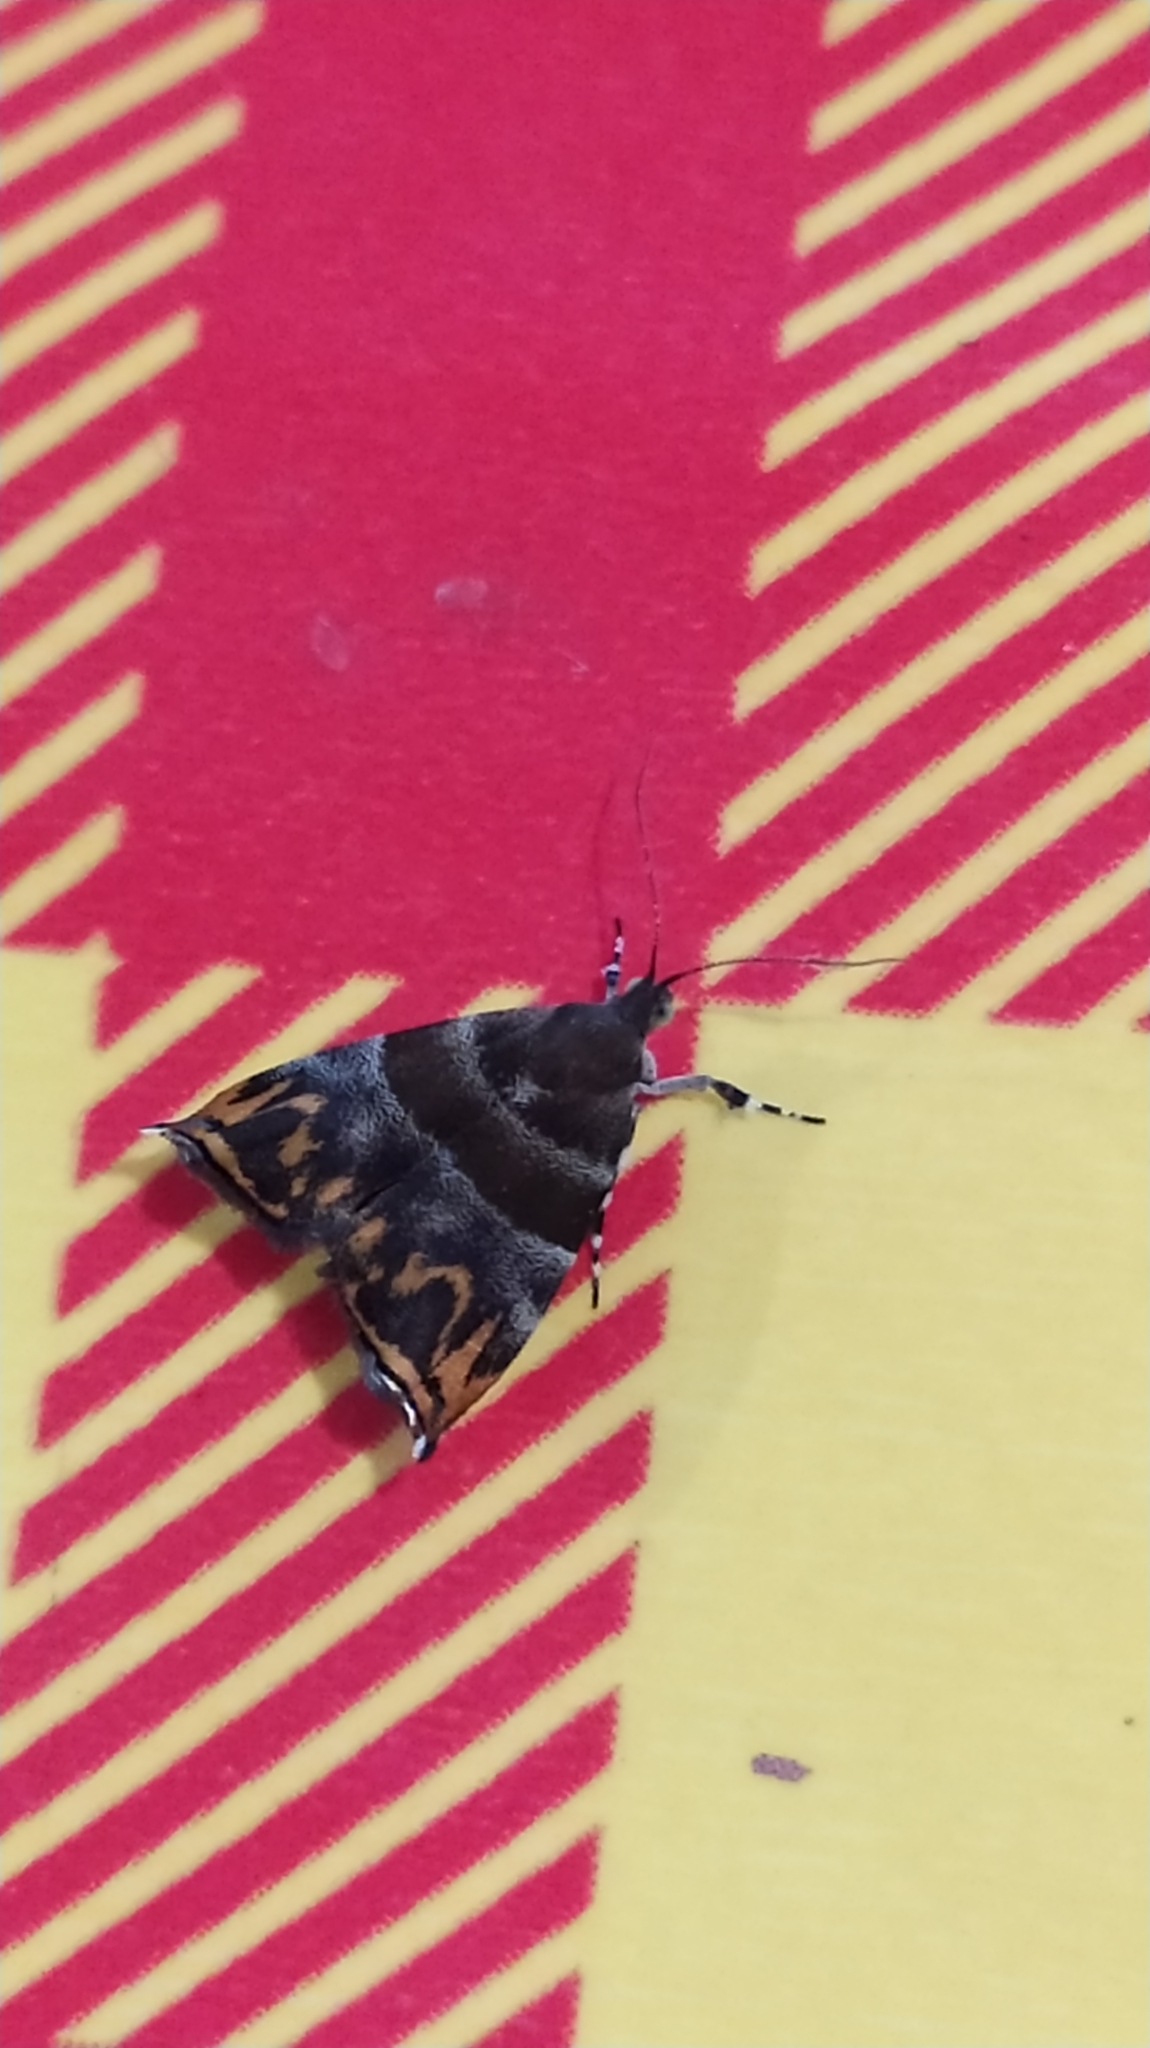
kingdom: Animalia
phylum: Arthropoda
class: Insecta
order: Lepidoptera
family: Choreutidae
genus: Ornarantia
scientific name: Ornarantia
